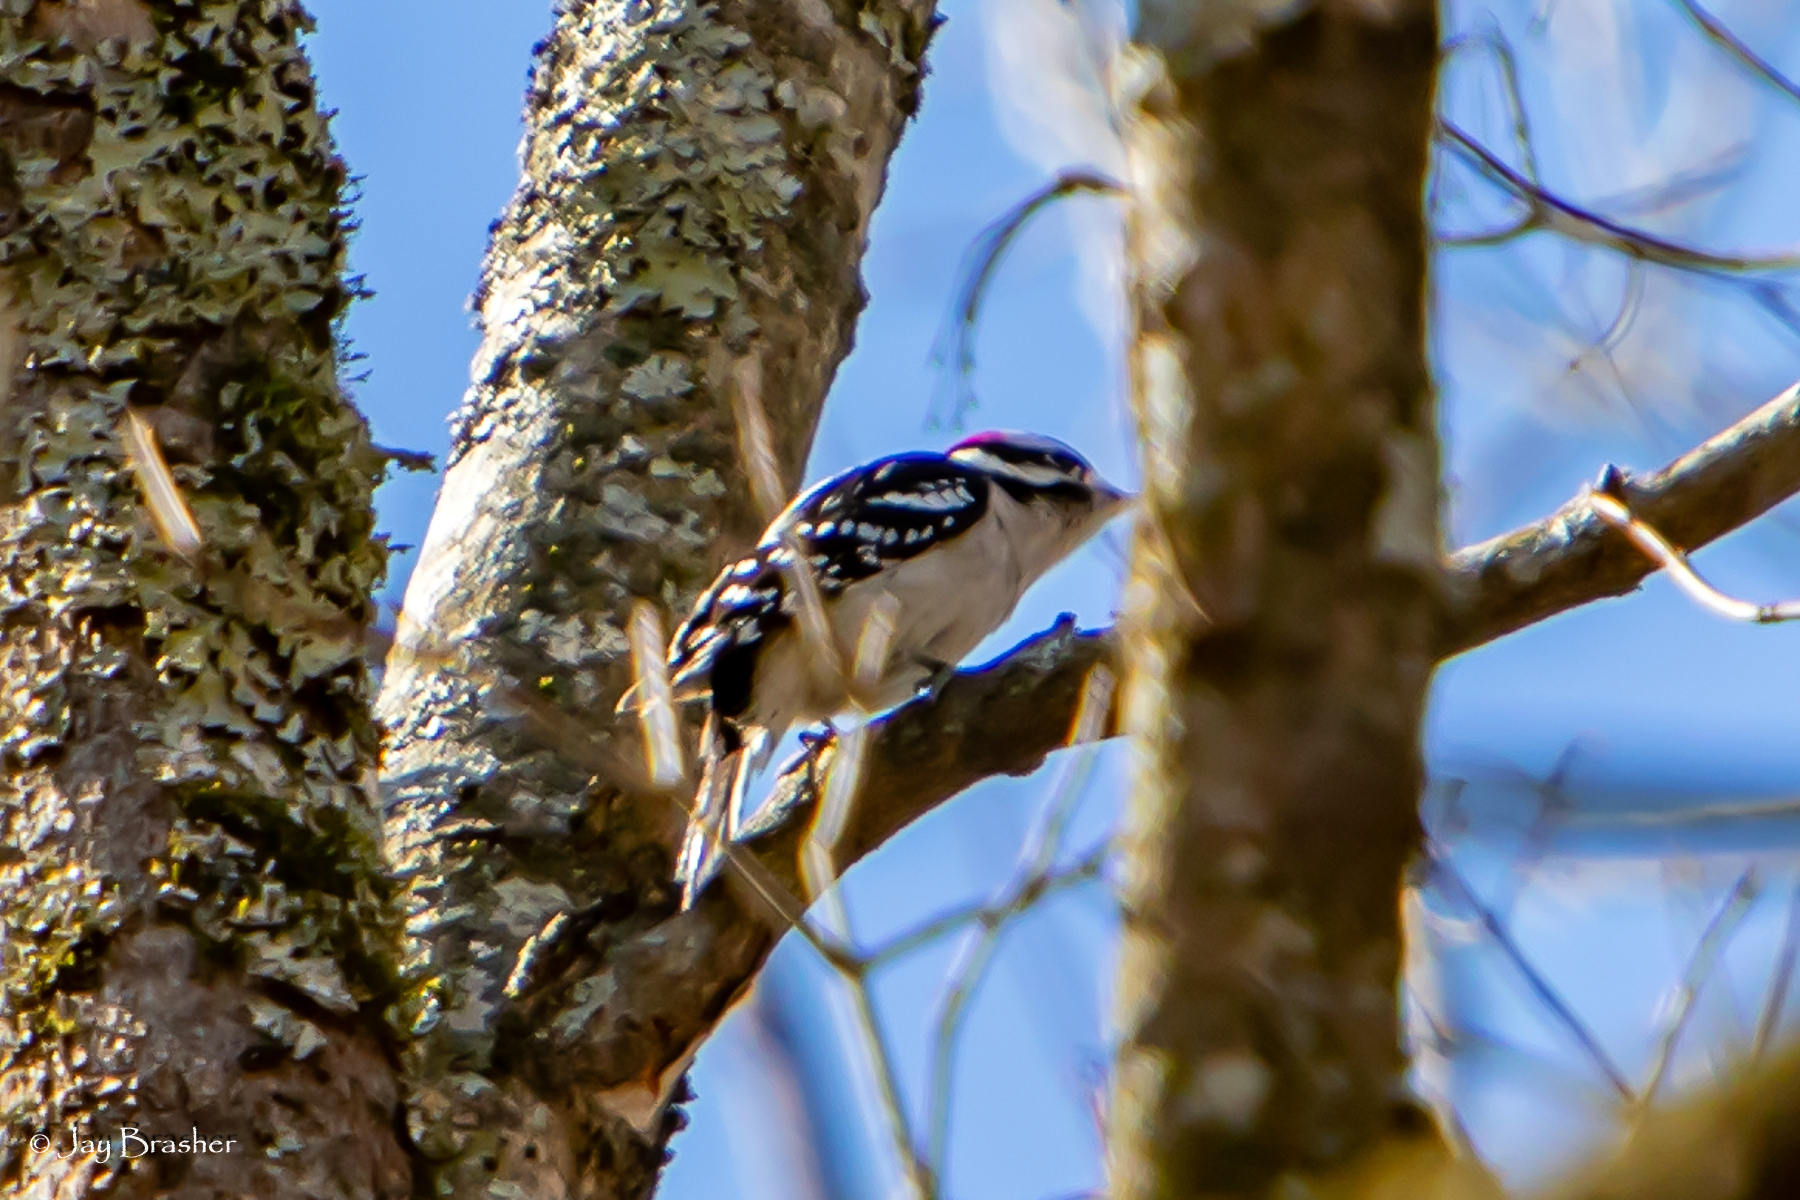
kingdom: Animalia
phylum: Chordata
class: Aves
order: Piciformes
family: Picidae
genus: Dryobates
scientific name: Dryobates pubescens
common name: Downy woodpecker
